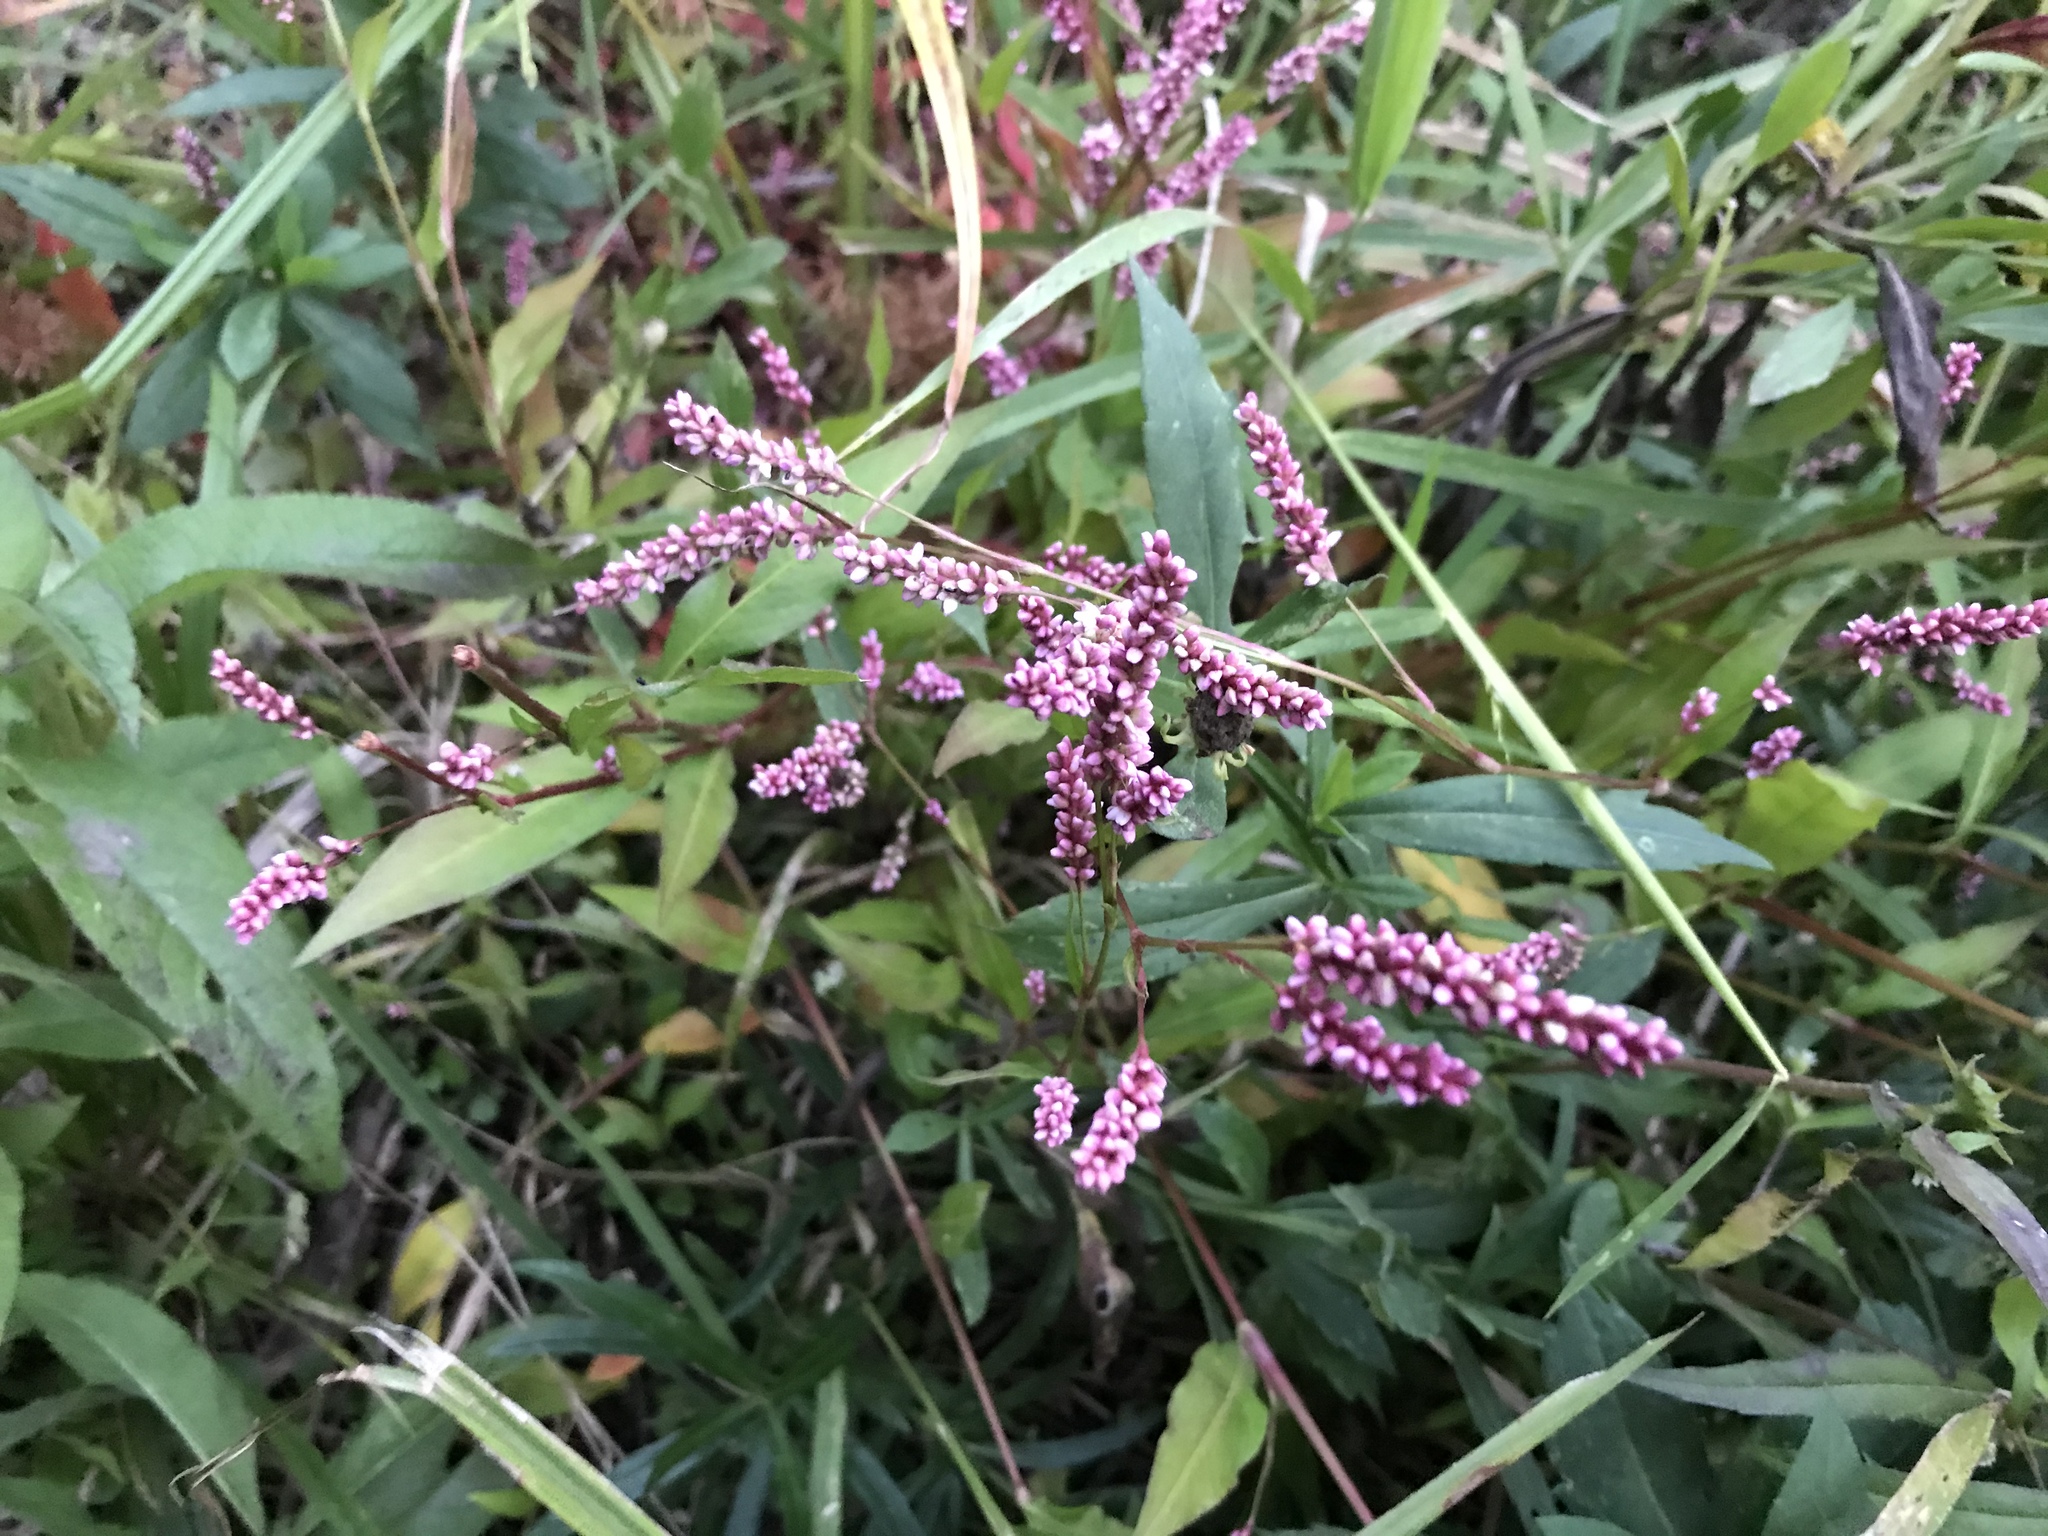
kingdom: Plantae
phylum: Tracheophyta
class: Magnoliopsida
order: Caryophyllales
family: Polygonaceae
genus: Persicaria
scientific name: Persicaria maculosa
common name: Redshank
